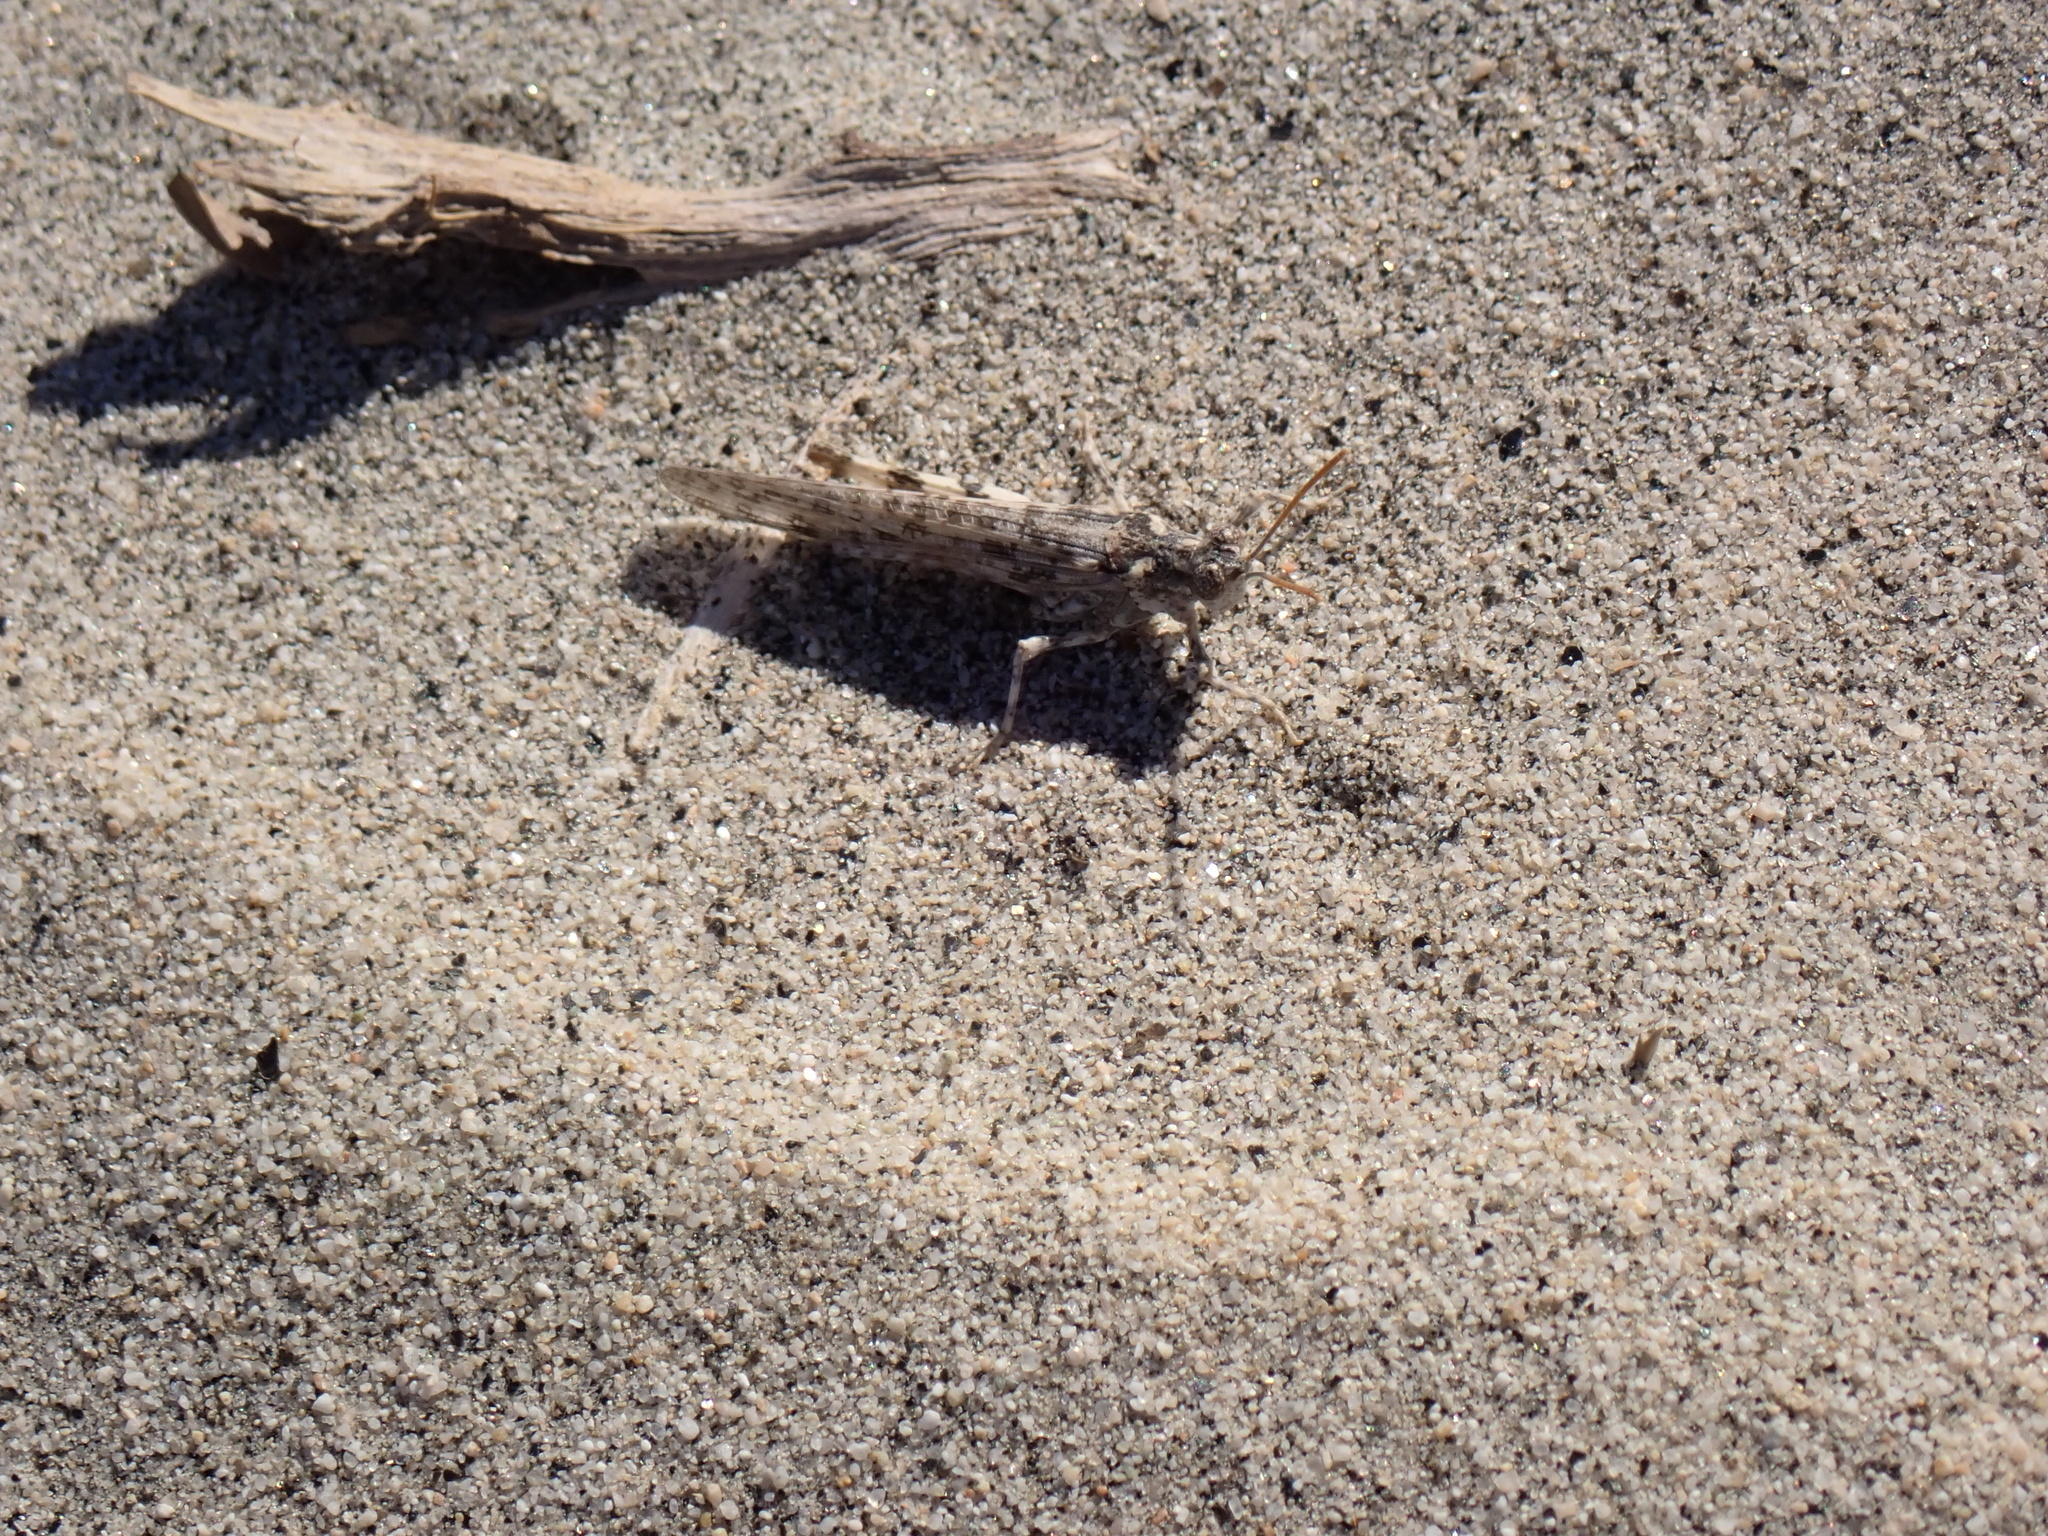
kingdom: Animalia
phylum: Arthropoda
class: Insecta
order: Orthoptera
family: Acrididae
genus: Anconia
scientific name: Anconia integra
